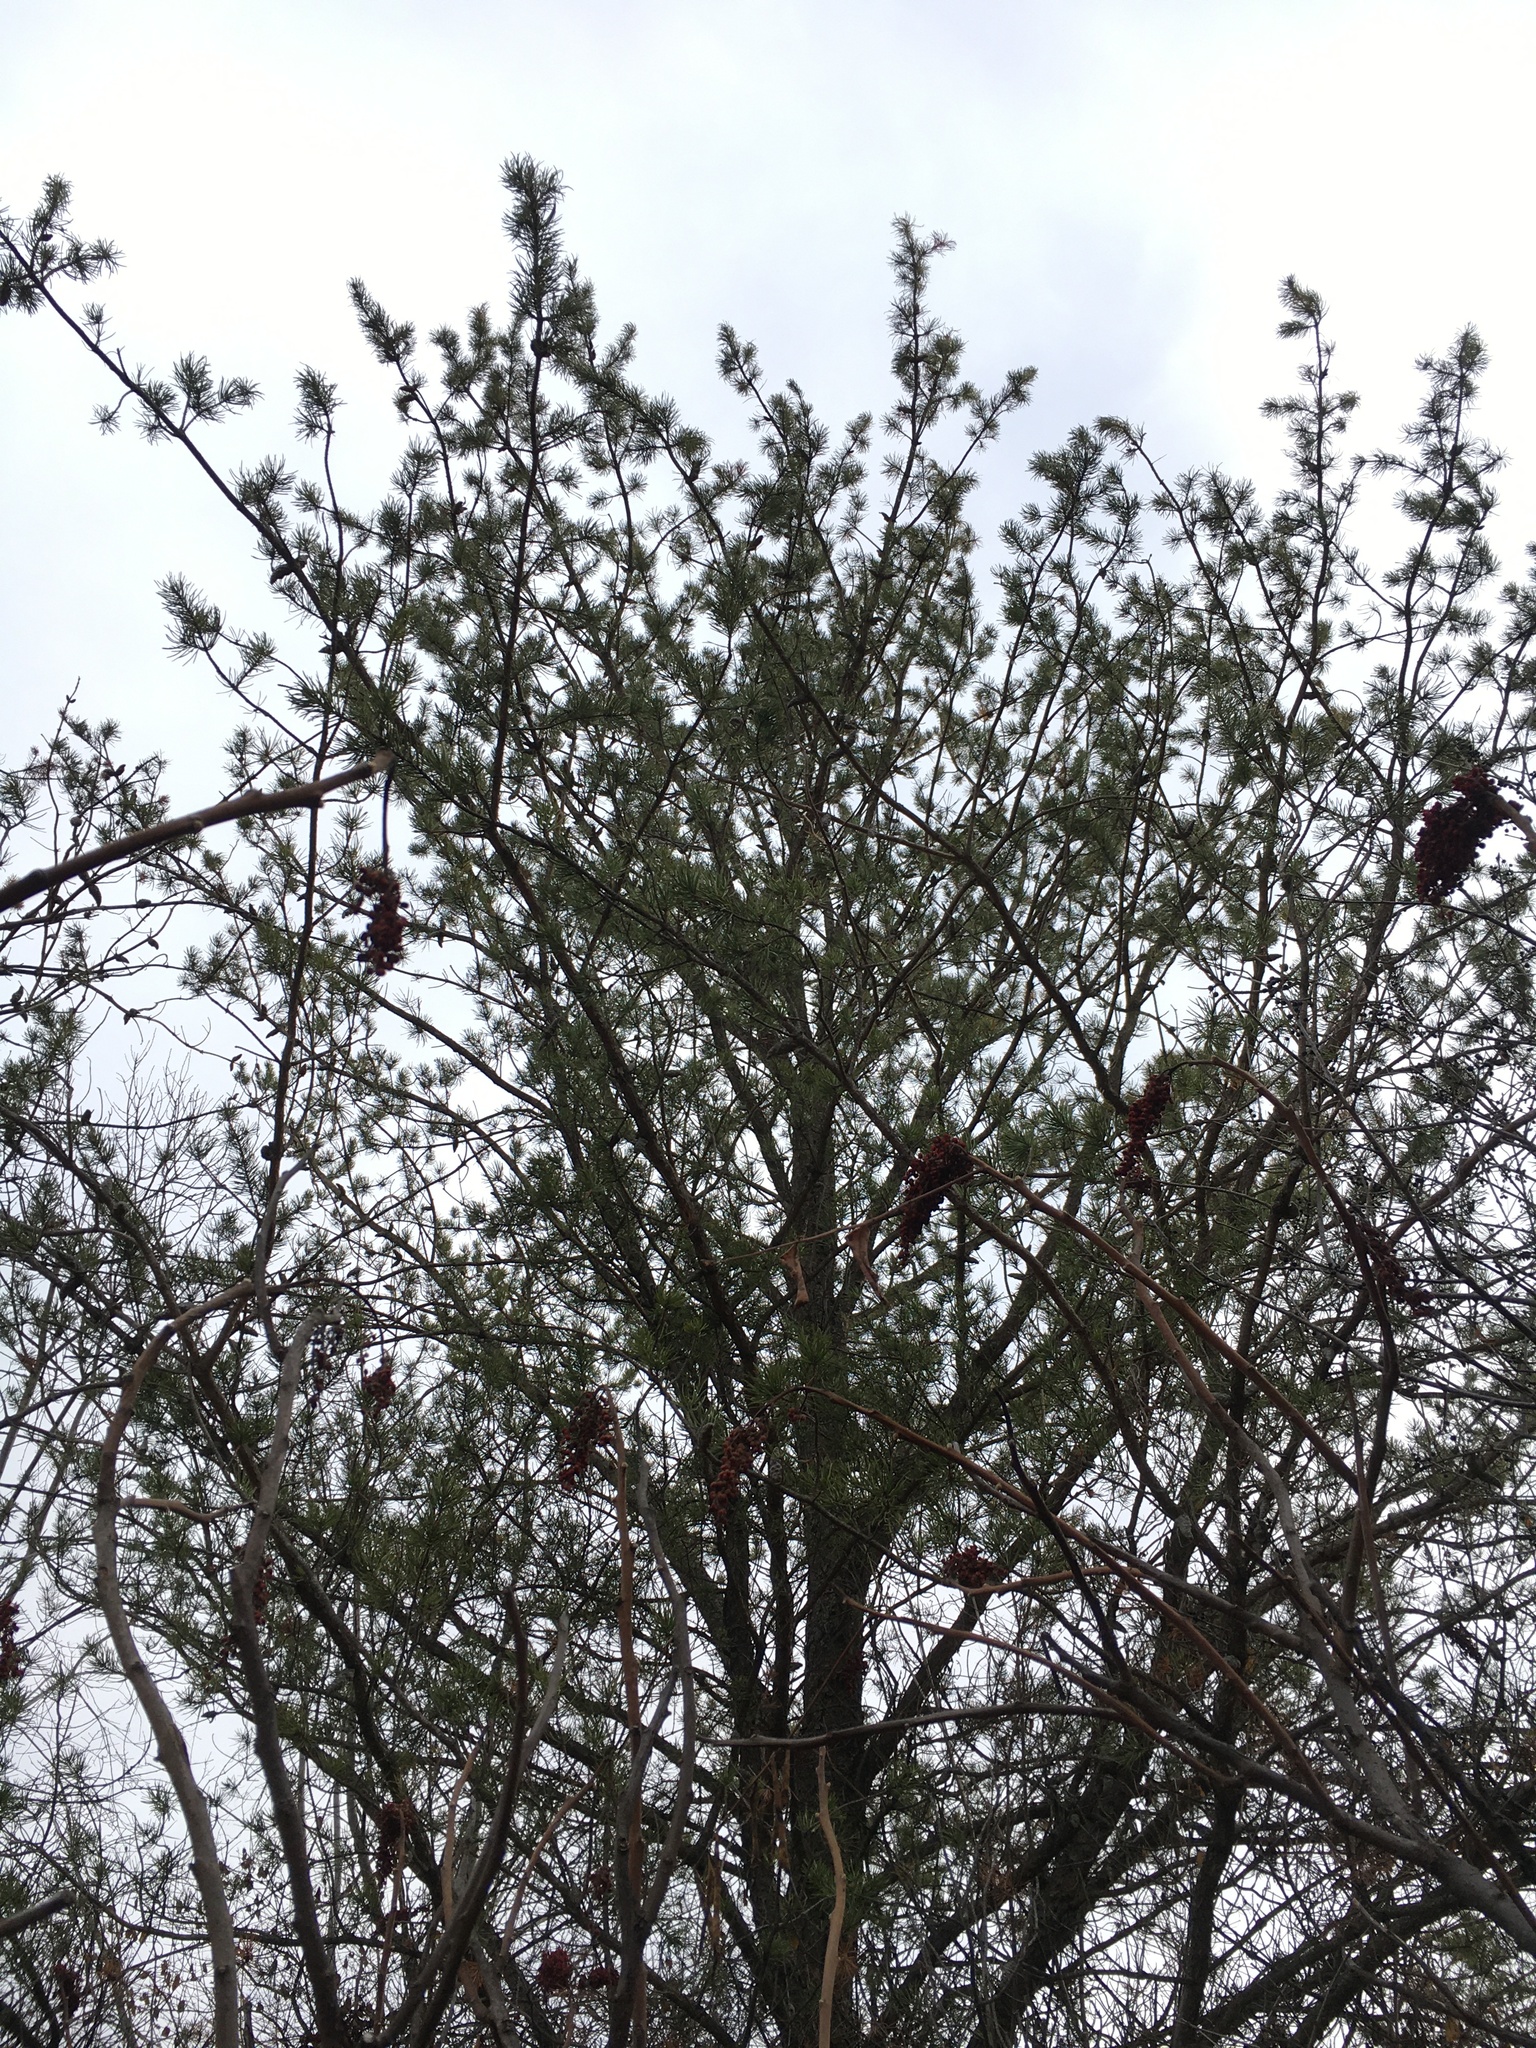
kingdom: Plantae
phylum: Tracheophyta
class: Pinopsida
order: Pinales
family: Pinaceae
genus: Pinus
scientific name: Pinus banksiana
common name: Jack pine
